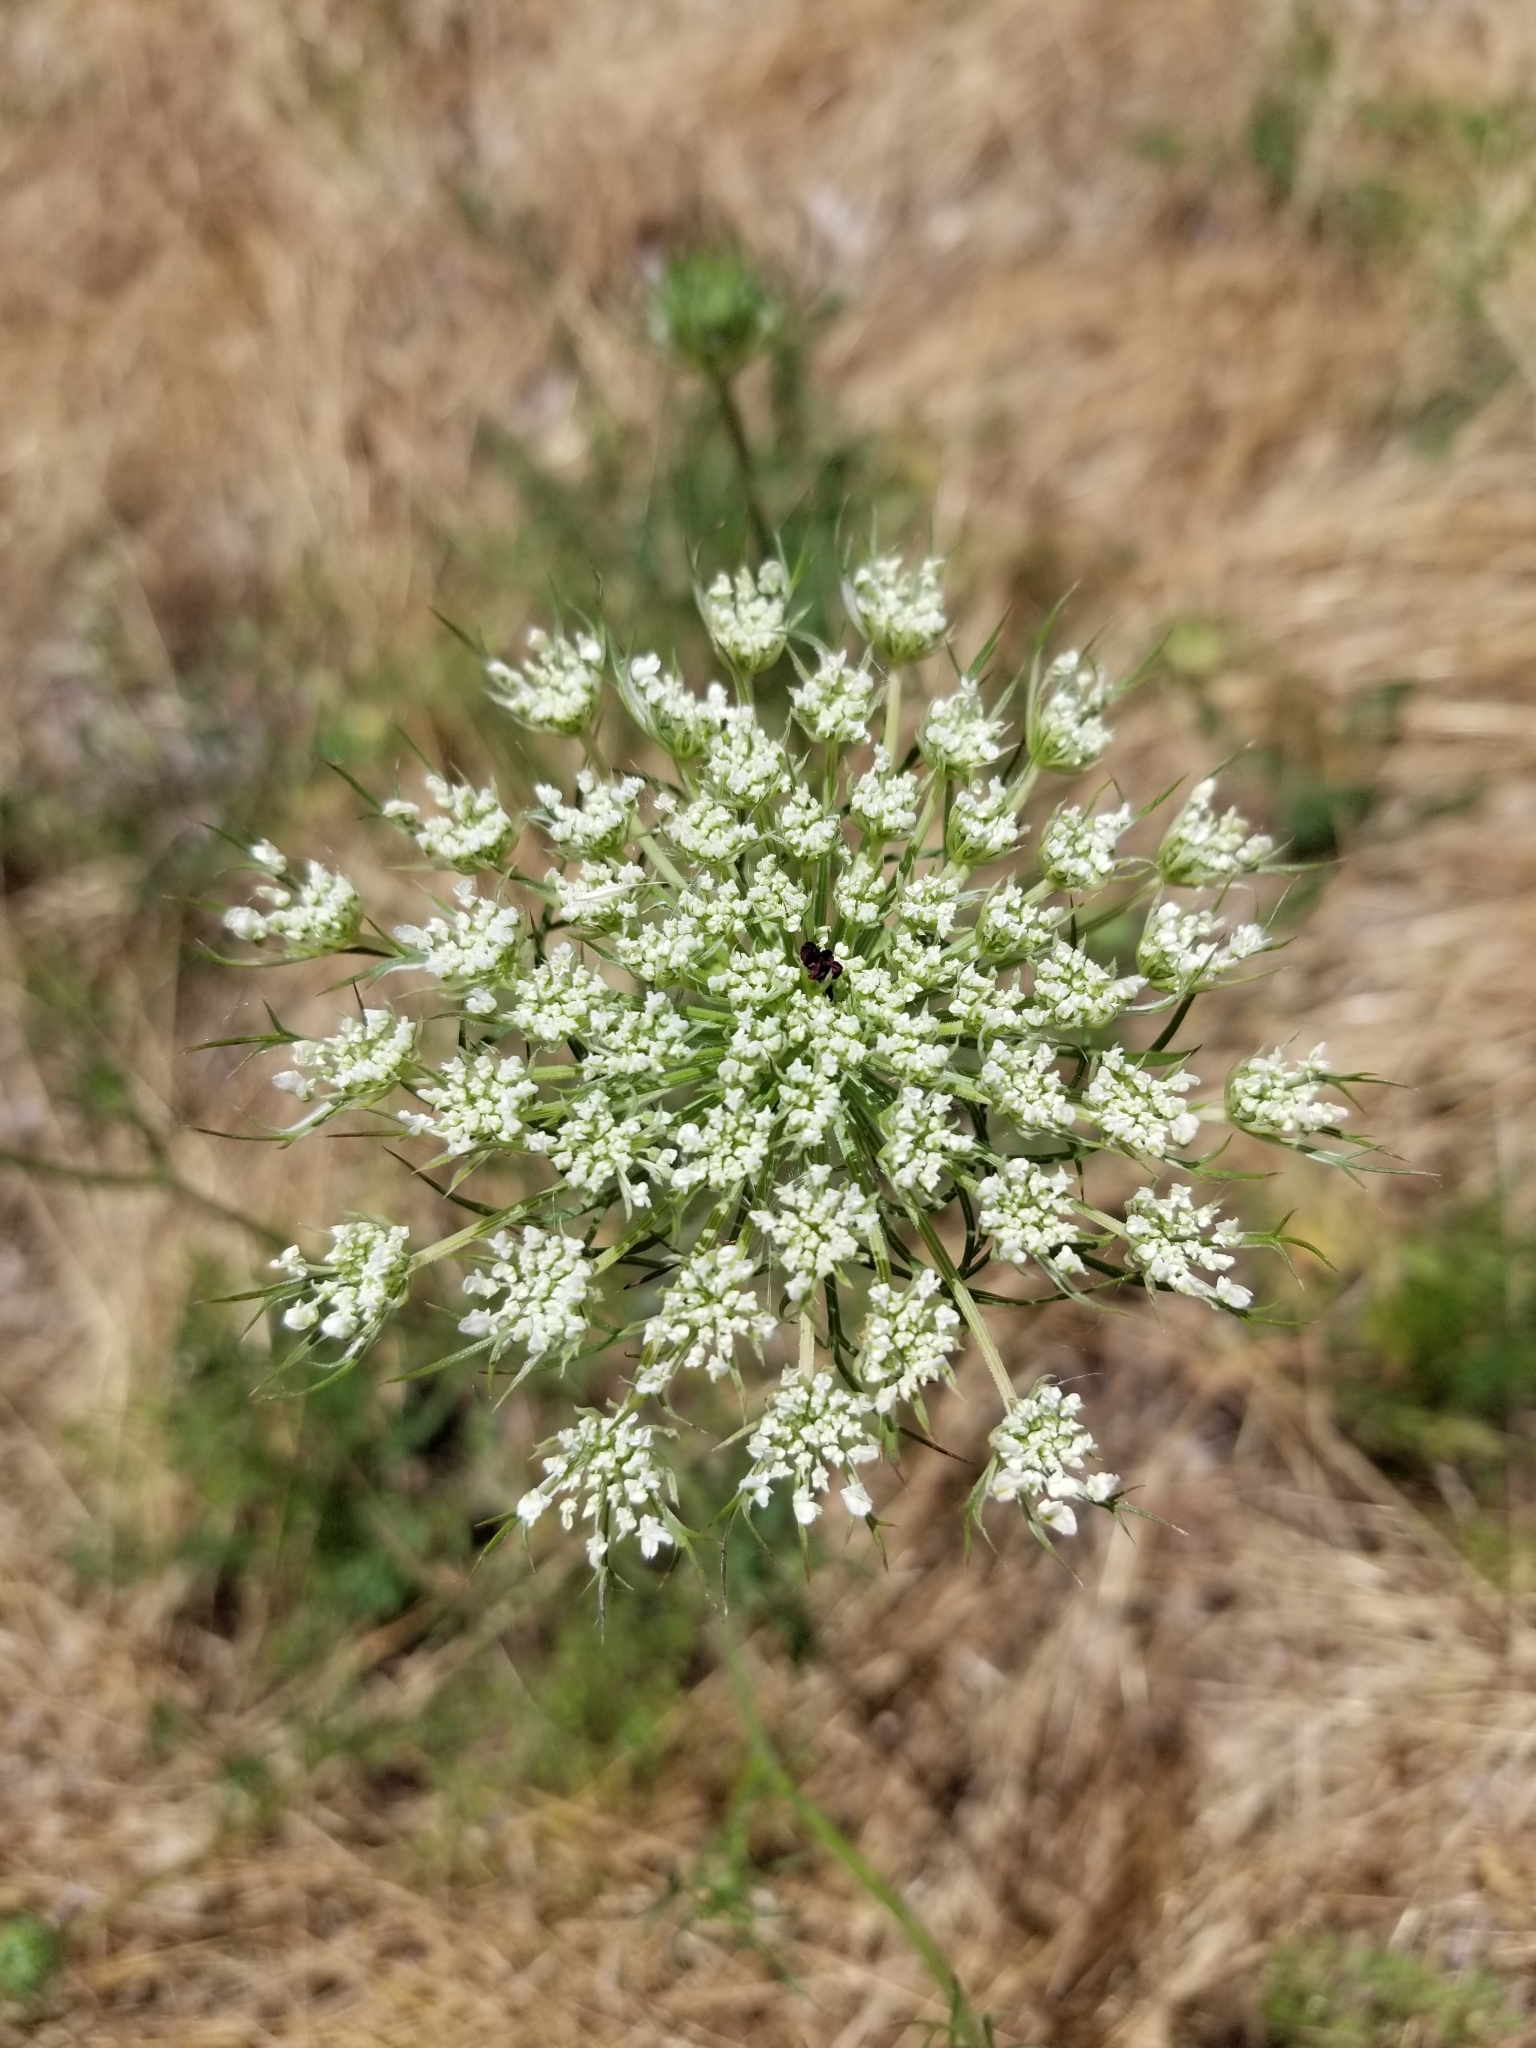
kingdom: Plantae
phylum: Tracheophyta
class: Magnoliopsida
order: Apiales
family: Apiaceae
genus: Daucus
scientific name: Daucus carota
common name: Wild carrot
